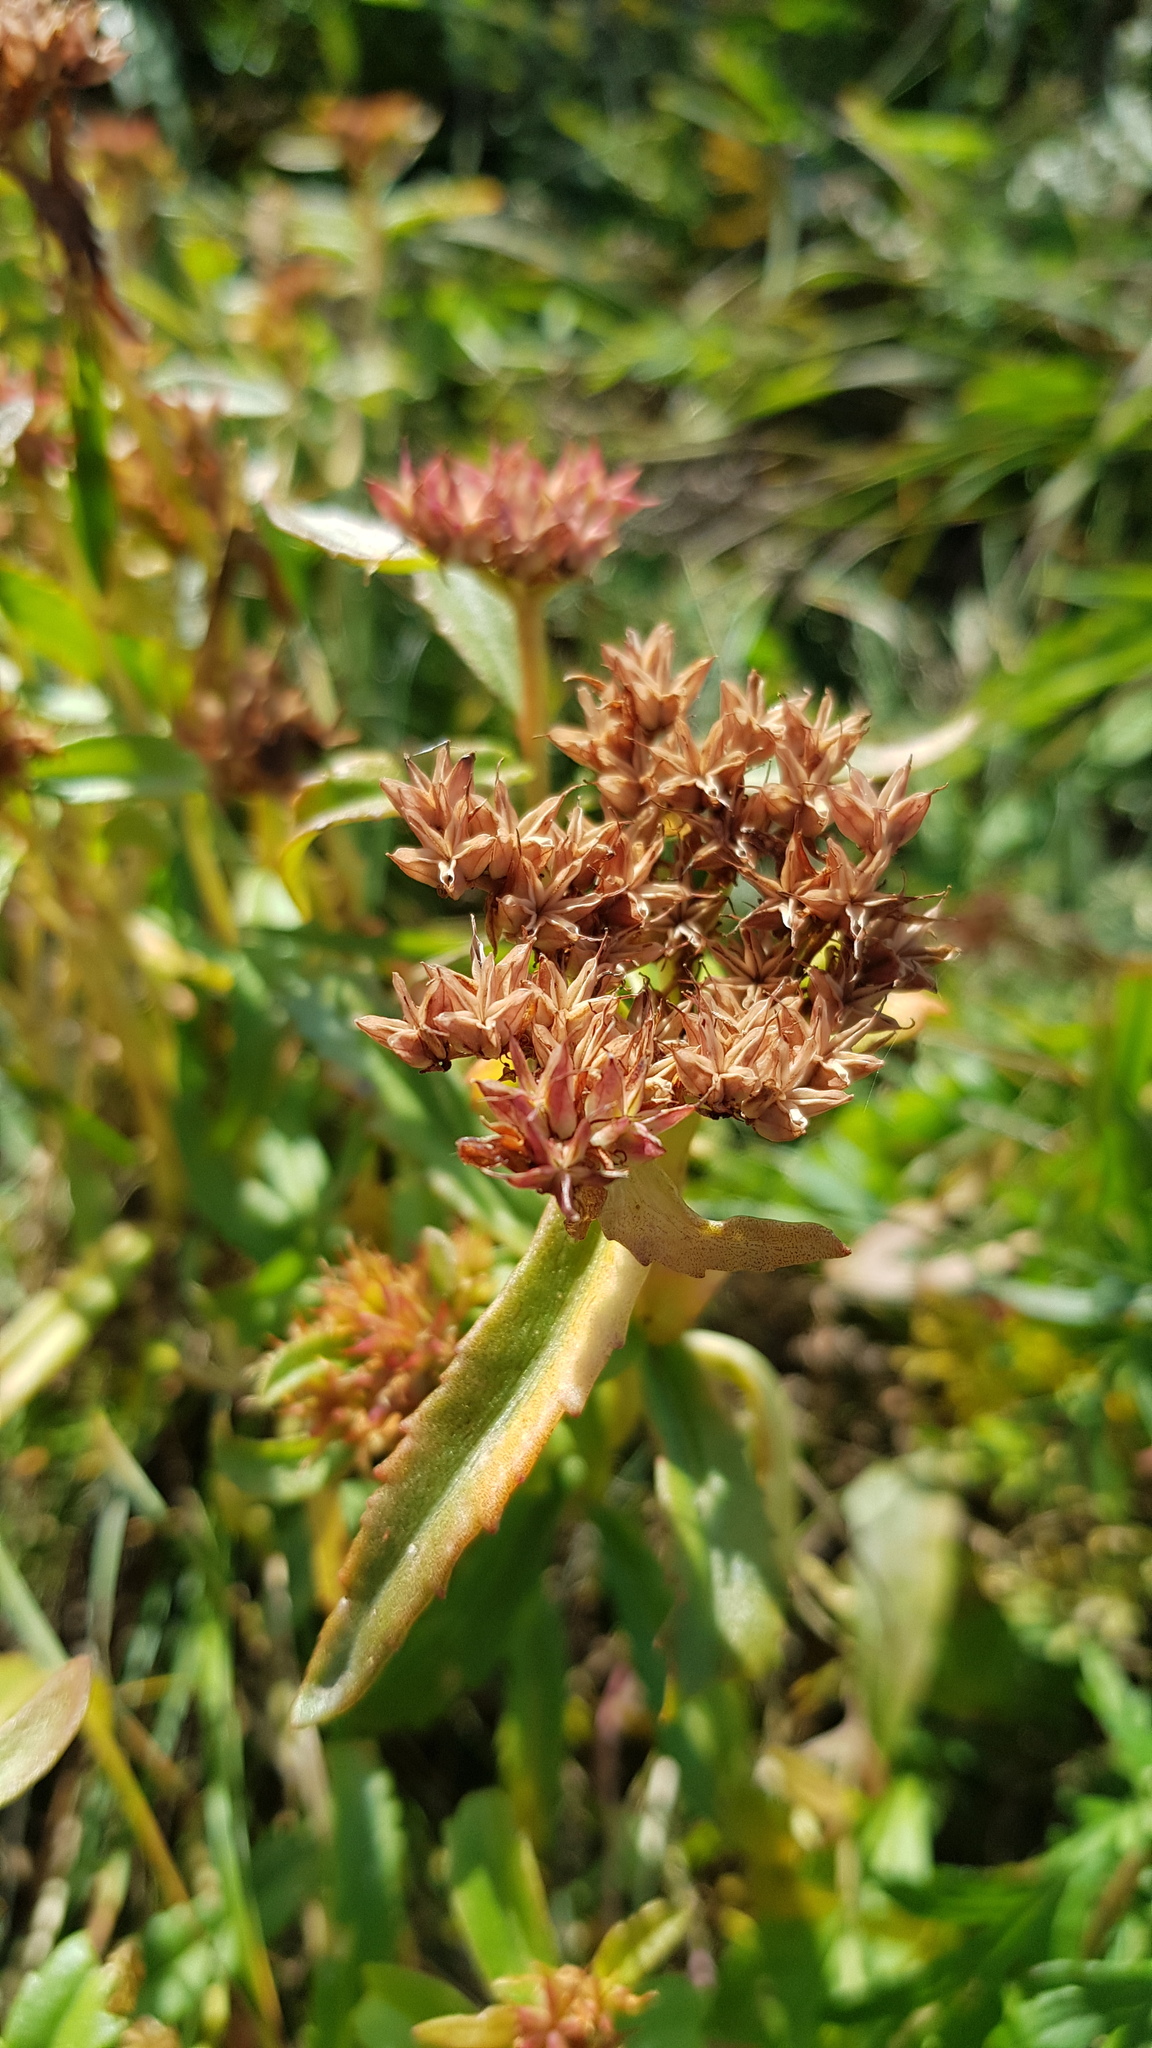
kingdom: Plantae
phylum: Tracheophyta
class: Magnoliopsida
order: Saxifragales
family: Crassulaceae
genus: Phedimus
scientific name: Phedimus aizoon
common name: Orpin aizoon
